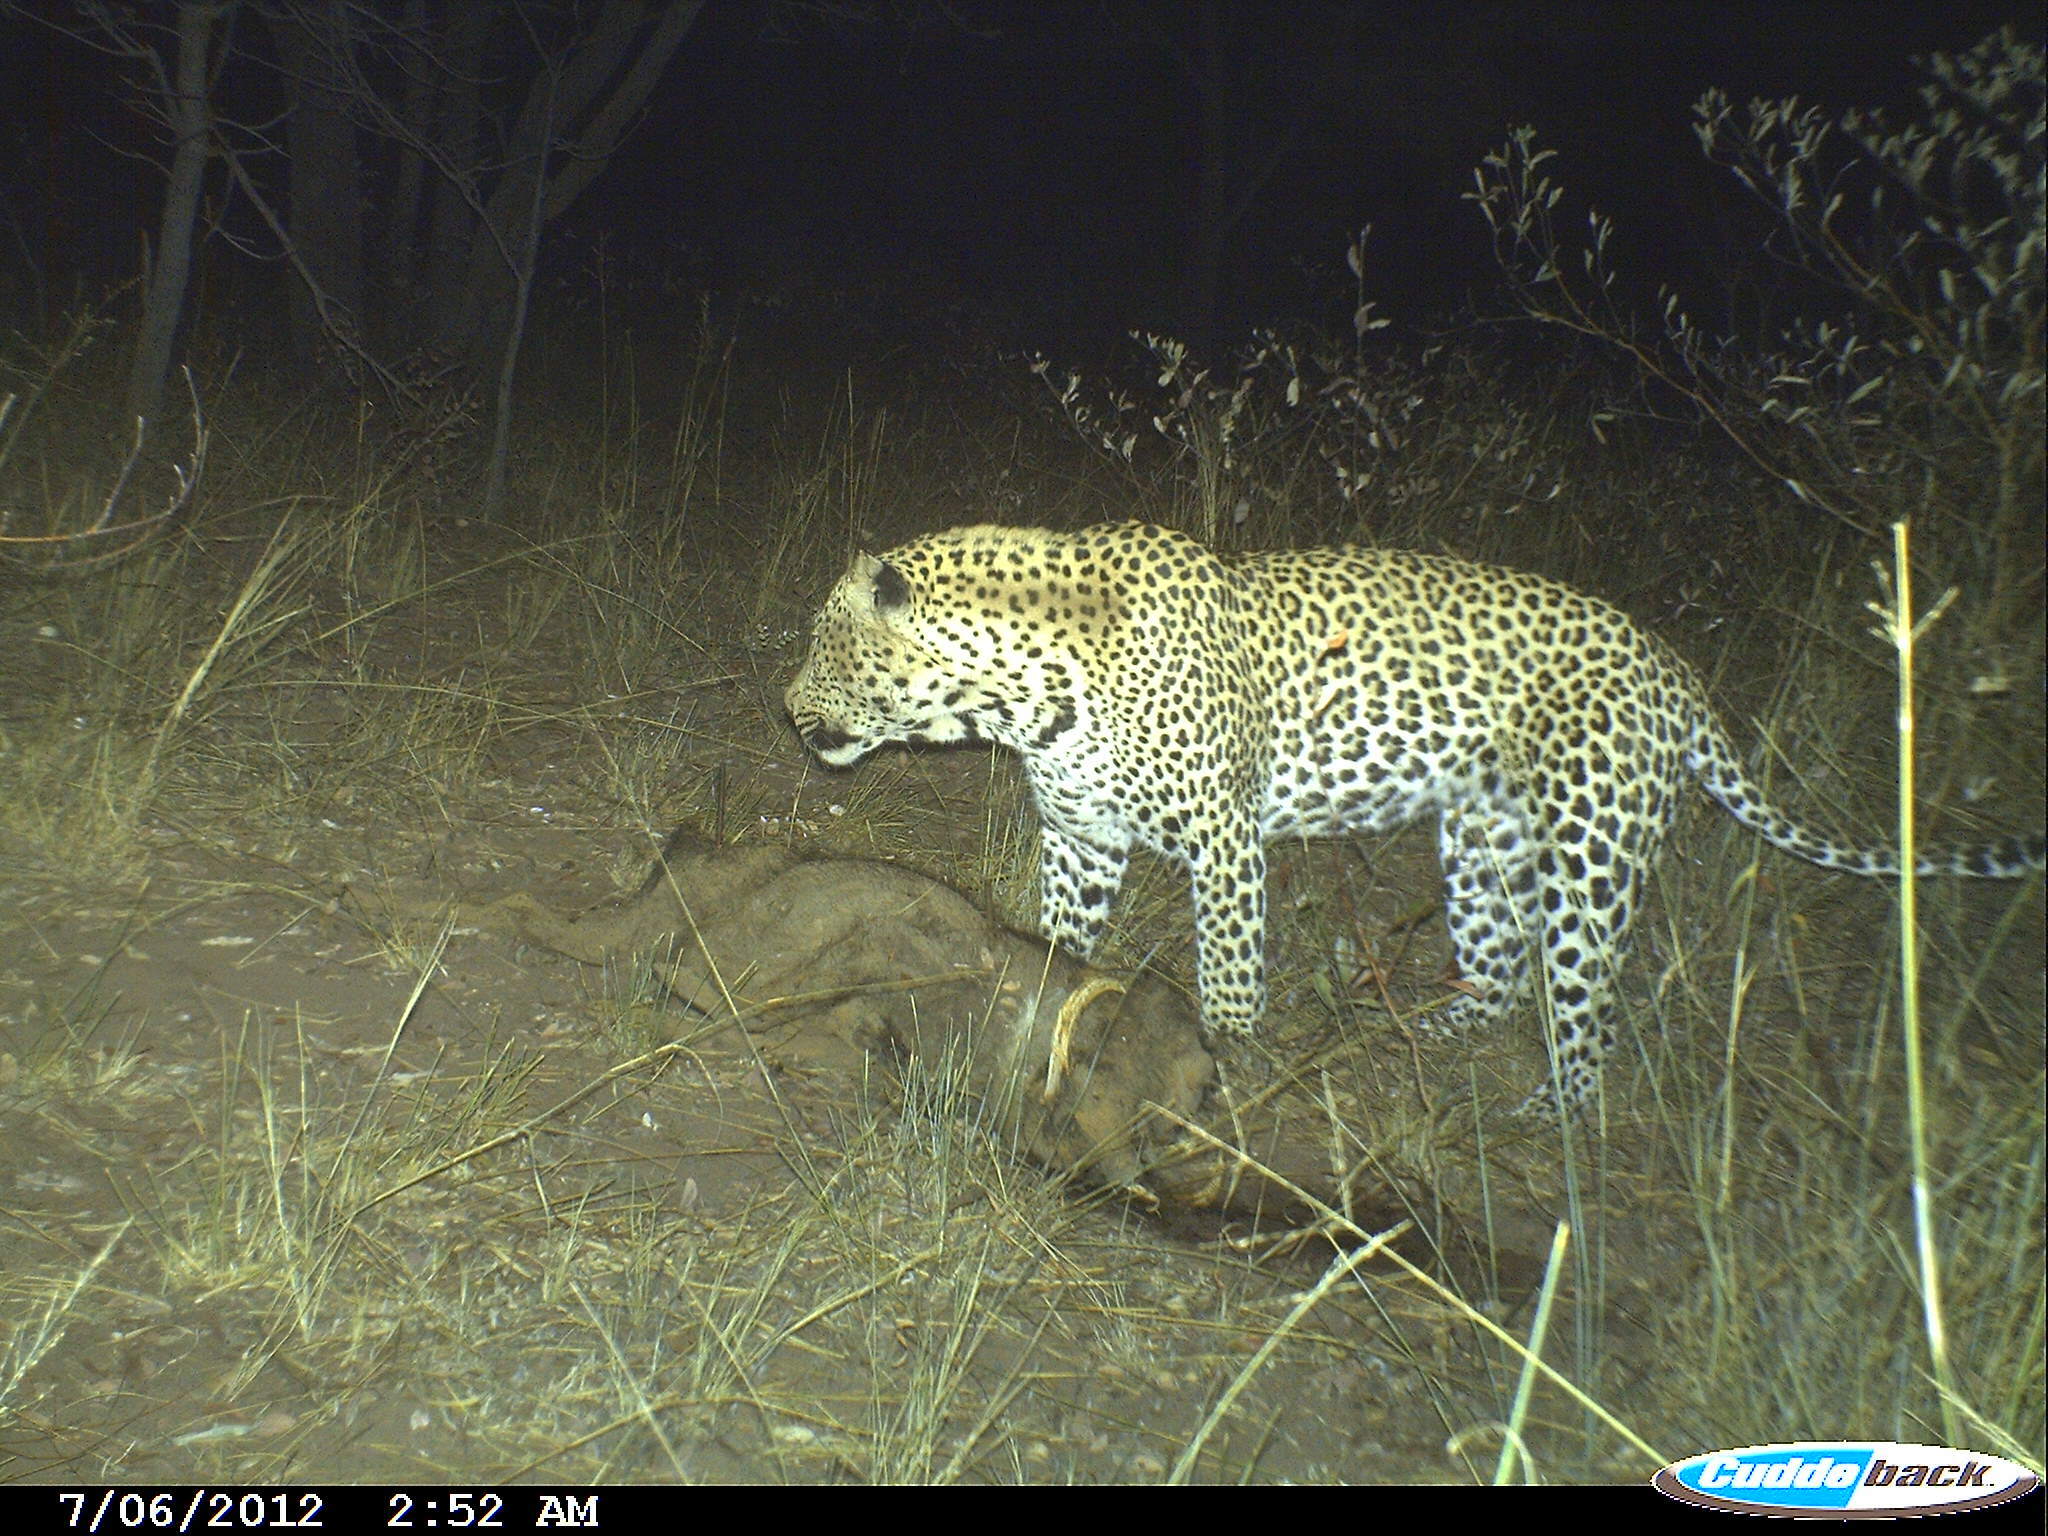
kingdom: Animalia
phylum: Chordata
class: Mammalia
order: Carnivora
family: Felidae
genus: Panthera
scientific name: Panthera pardus
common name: Leopard
